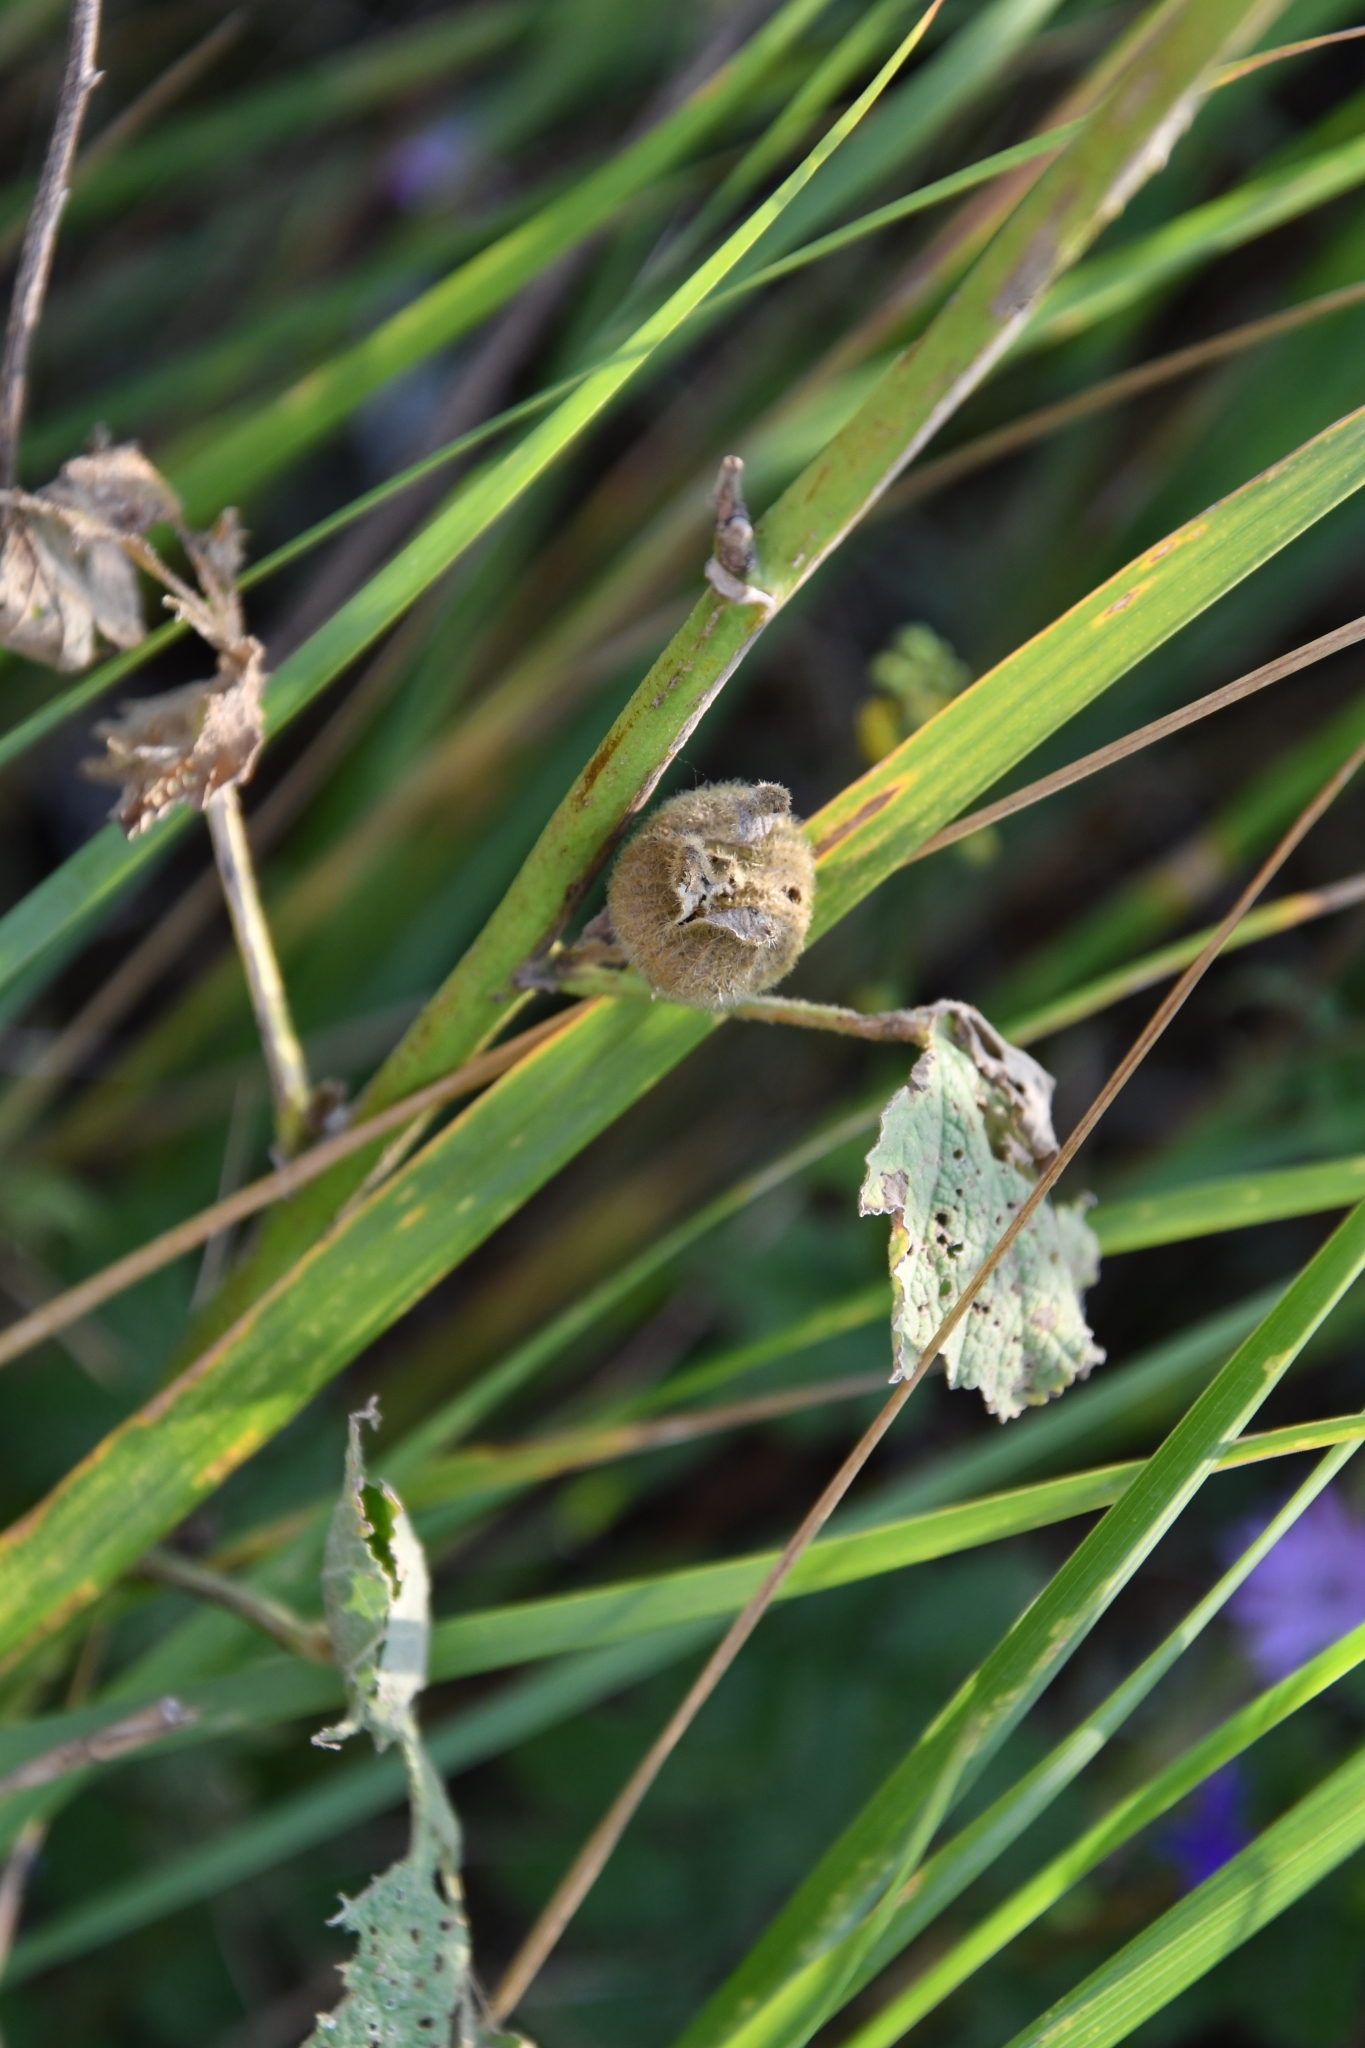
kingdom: Plantae
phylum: Tracheophyta
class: Magnoliopsida
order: Malvales
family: Malvaceae
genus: Alcea
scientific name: Alcea rosea
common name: Hollyhock
